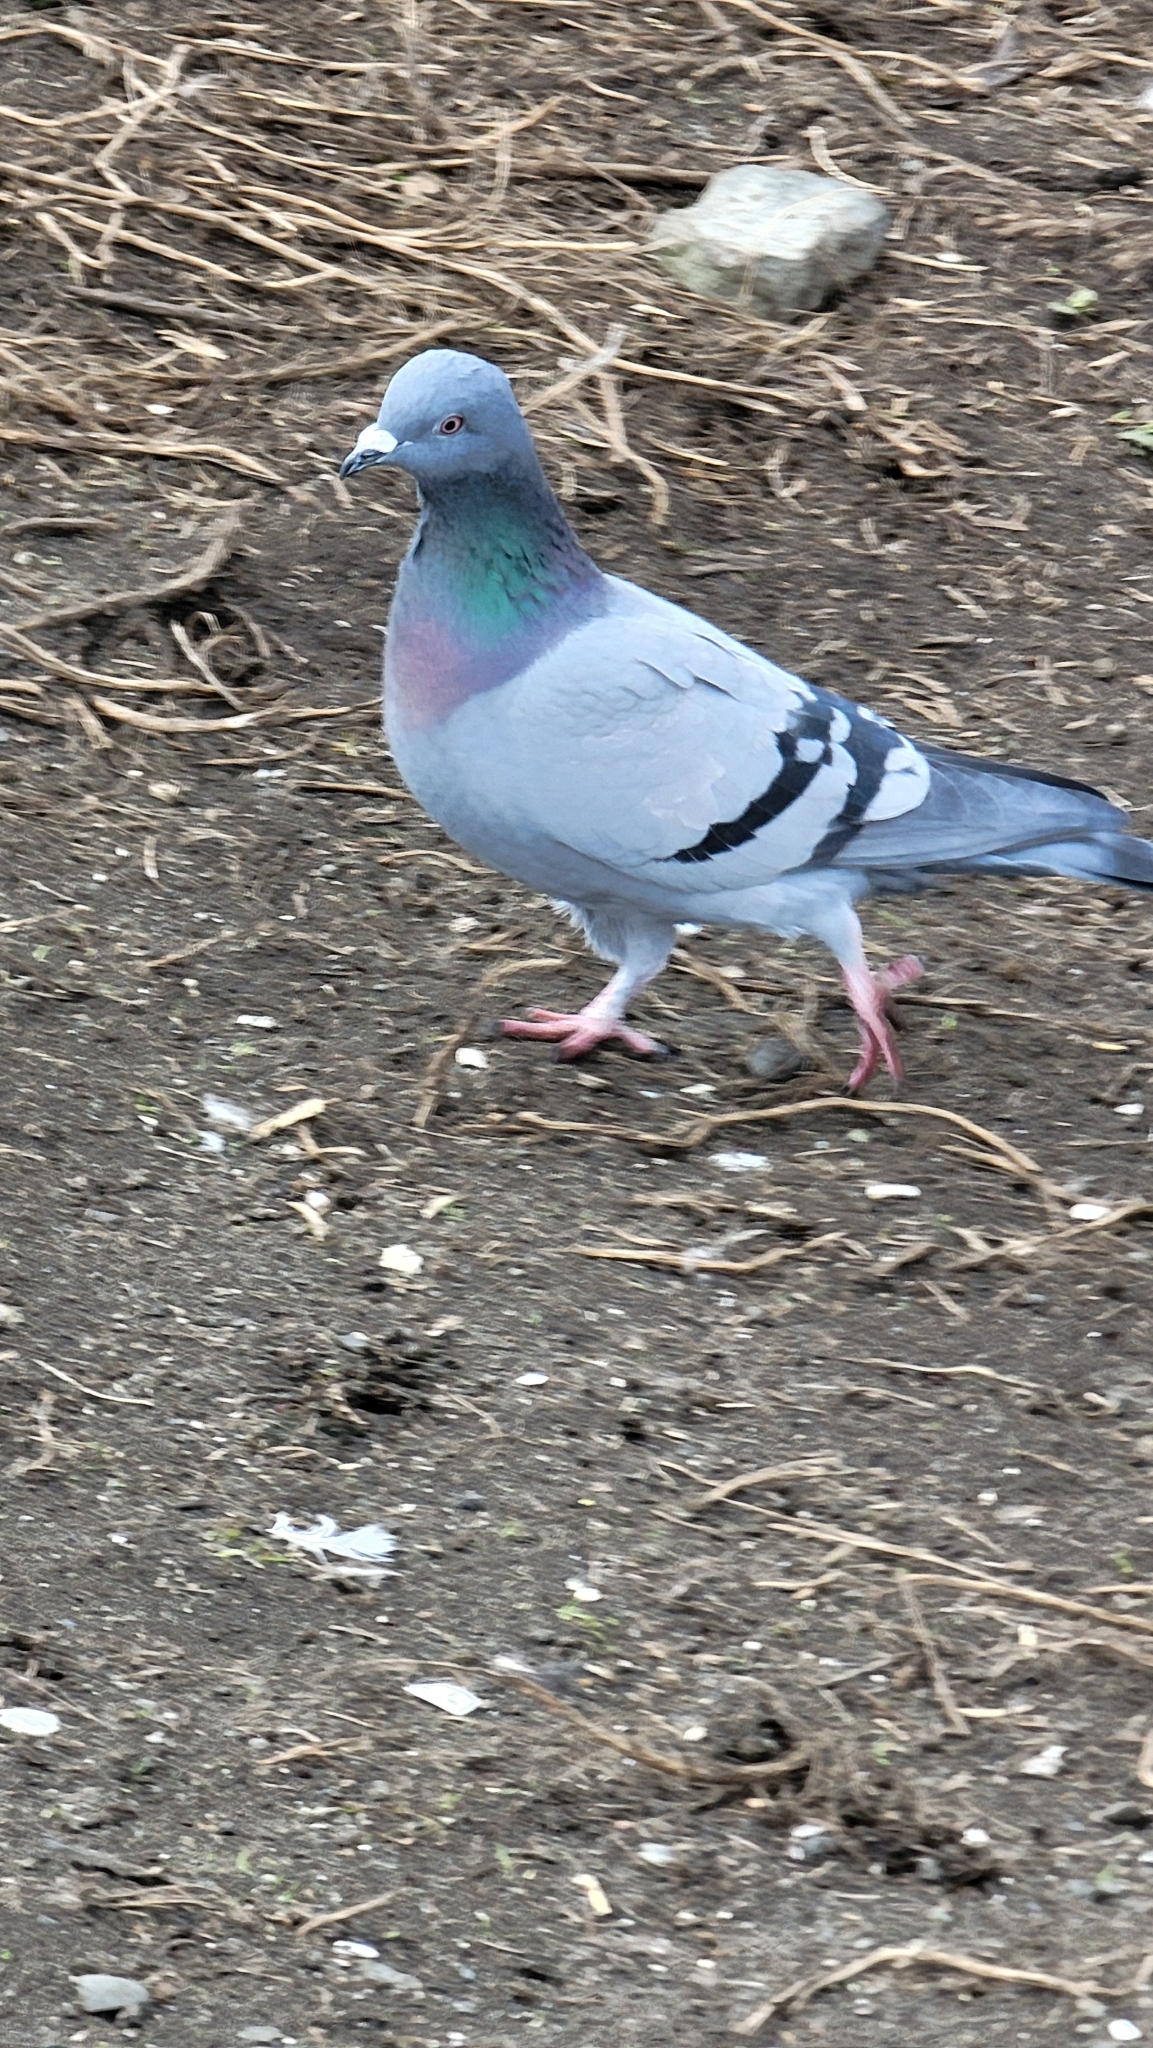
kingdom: Animalia
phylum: Chordata
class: Aves
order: Columbiformes
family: Columbidae
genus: Columba
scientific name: Columba livia
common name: Rock pigeon
